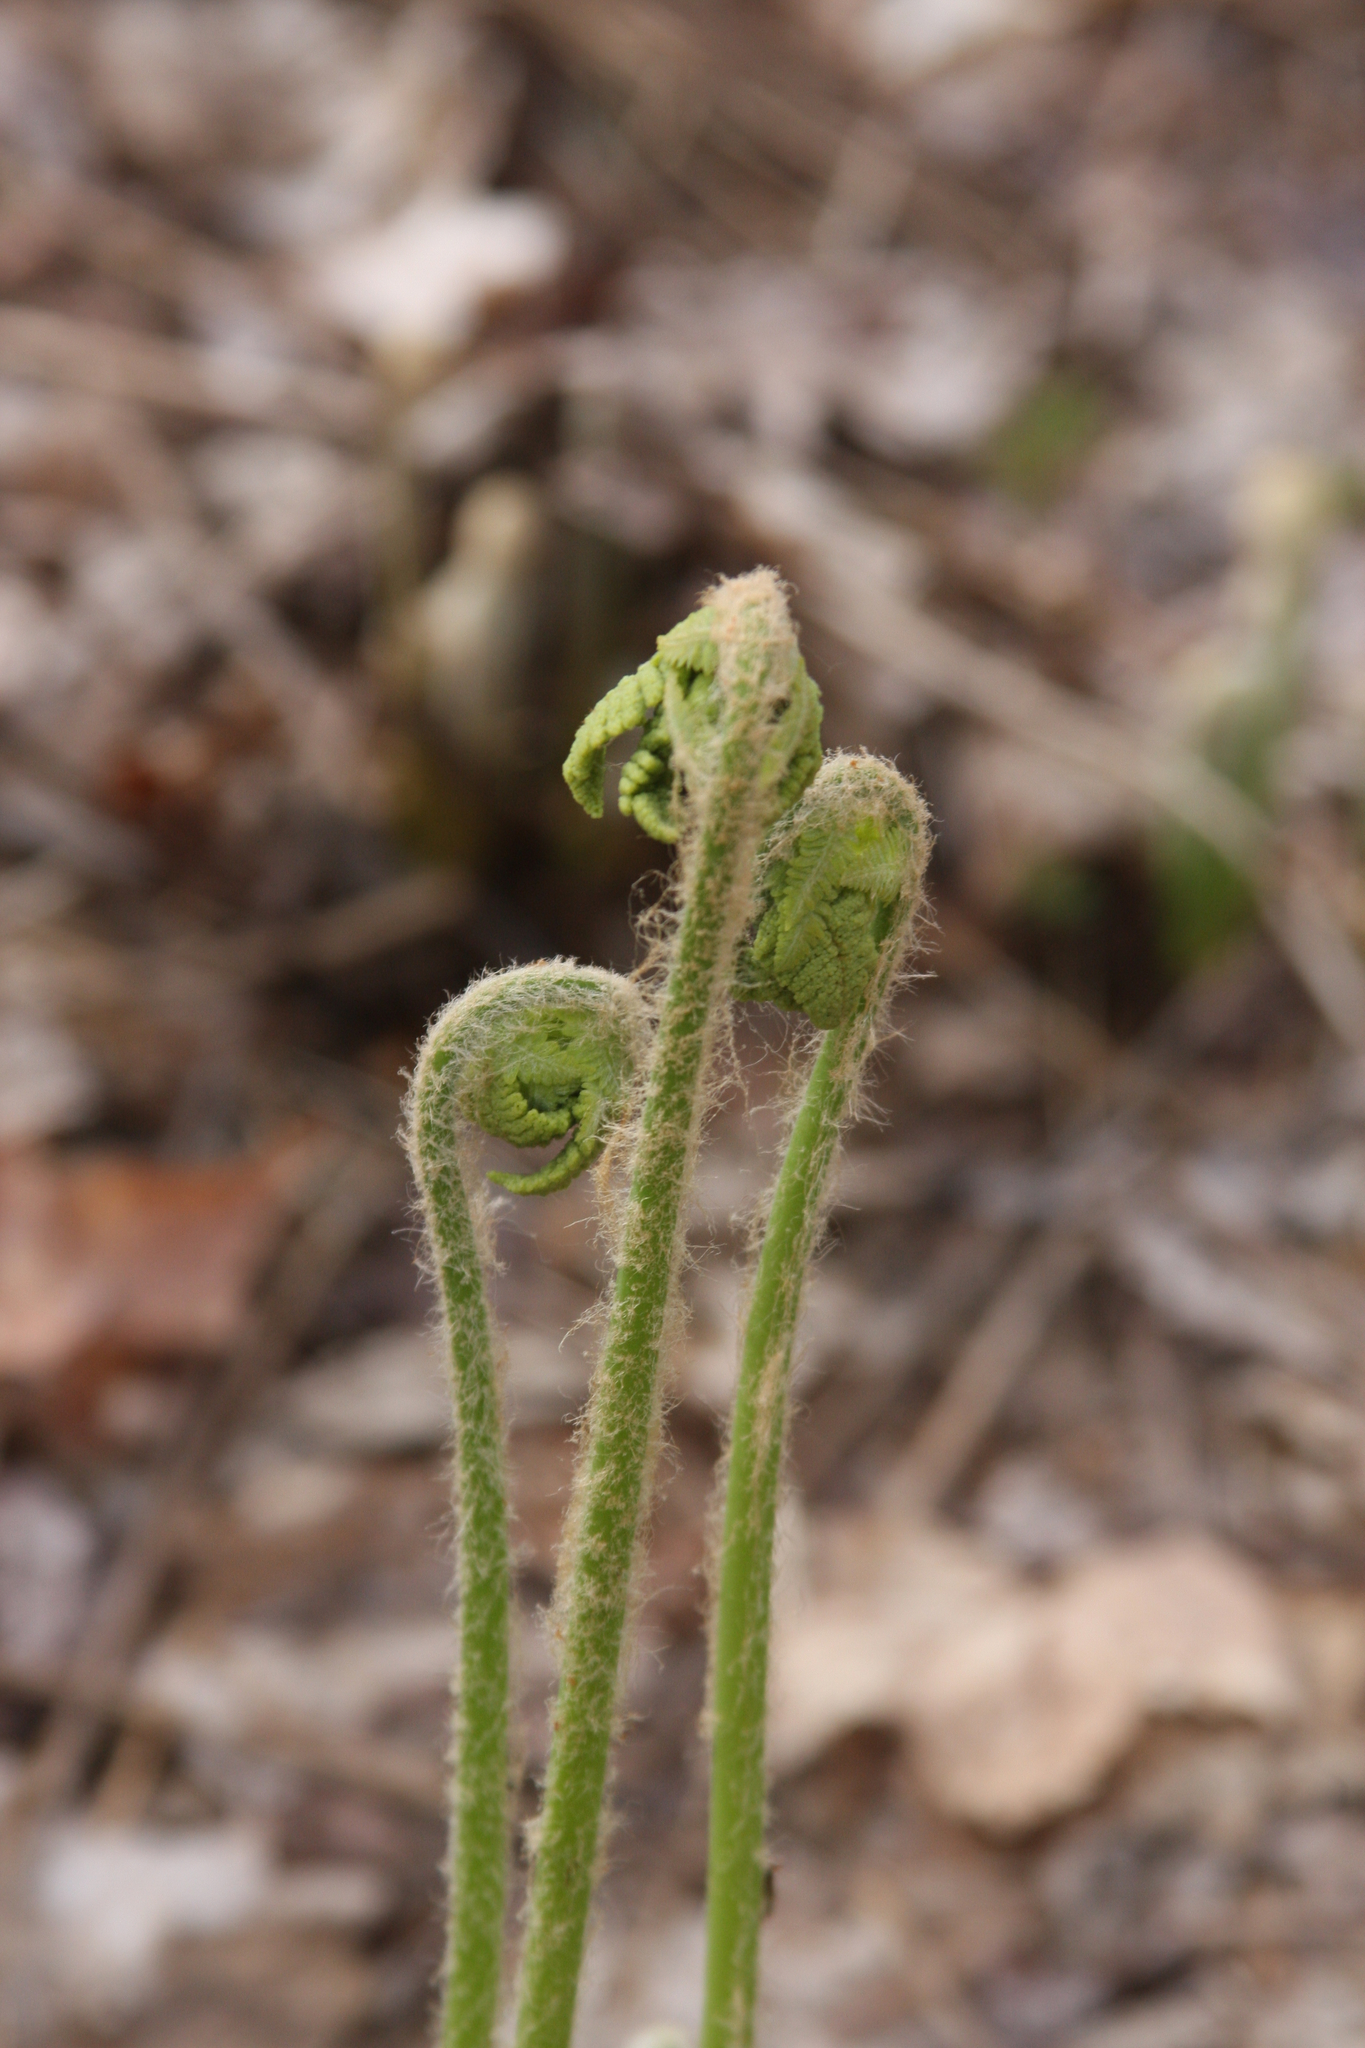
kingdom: Plantae
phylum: Tracheophyta
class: Polypodiopsida
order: Osmundales
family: Osmundaceae
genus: Claytosmunda
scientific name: Claytosmunda claytoniana
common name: Clayton's fern
